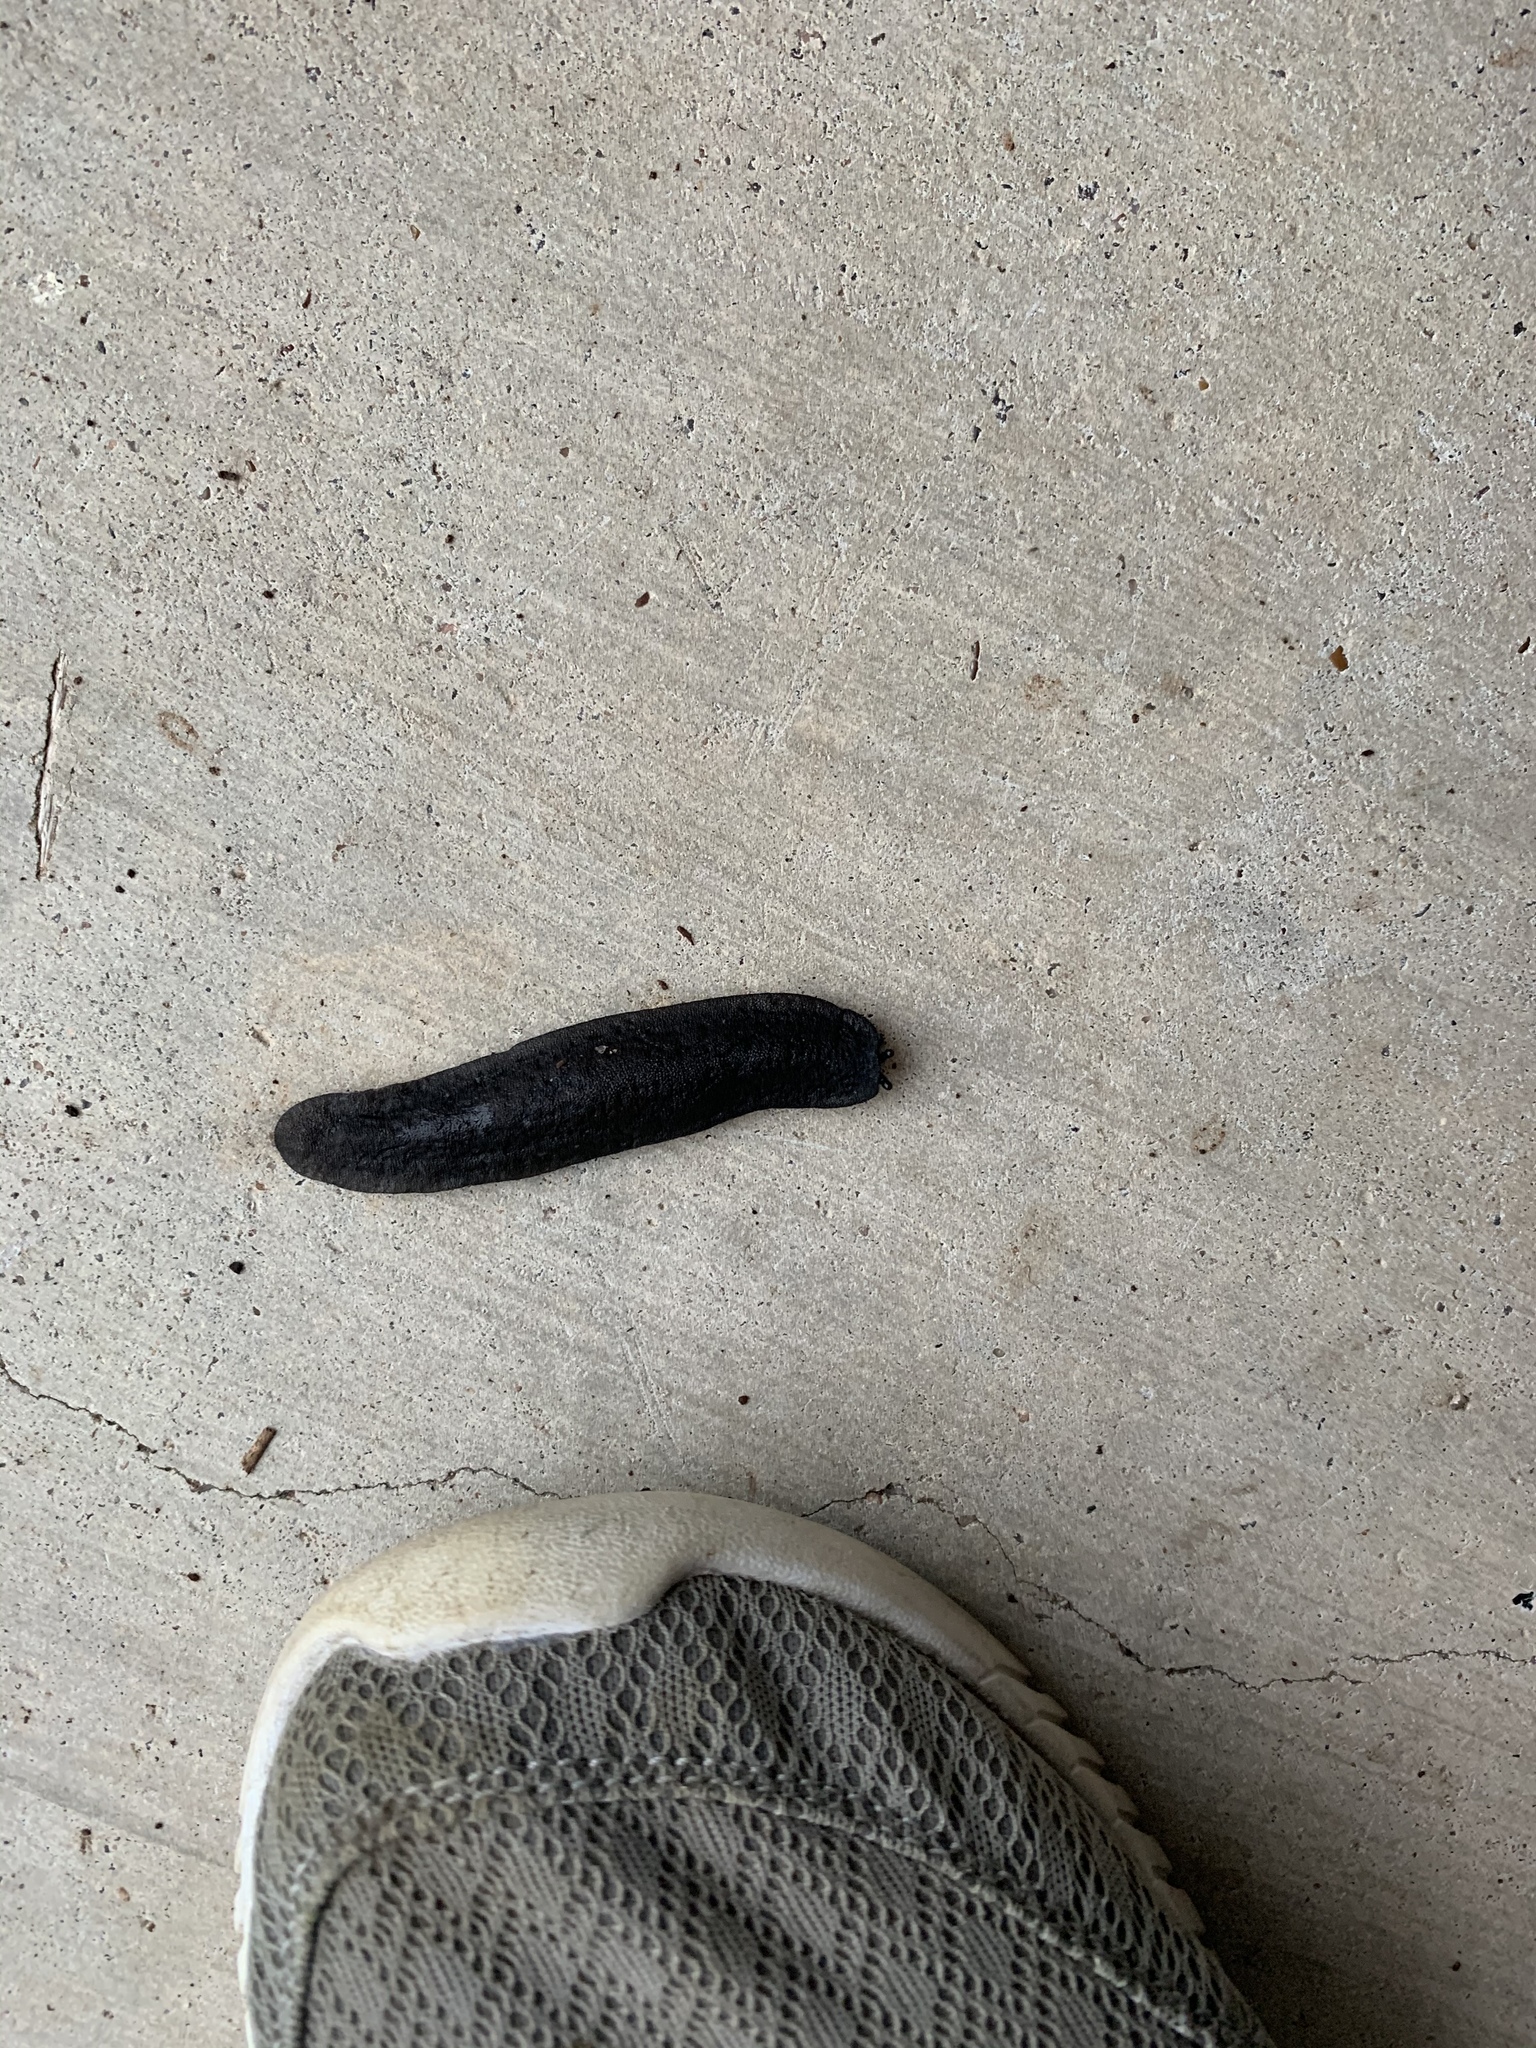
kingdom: Animalia
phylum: Mollusca
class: Gastropoda
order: Systellommatophora
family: Veronicellidae
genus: Belocaulus
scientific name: Belocaulus angustipes
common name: Black velvet leatherleaf slug
